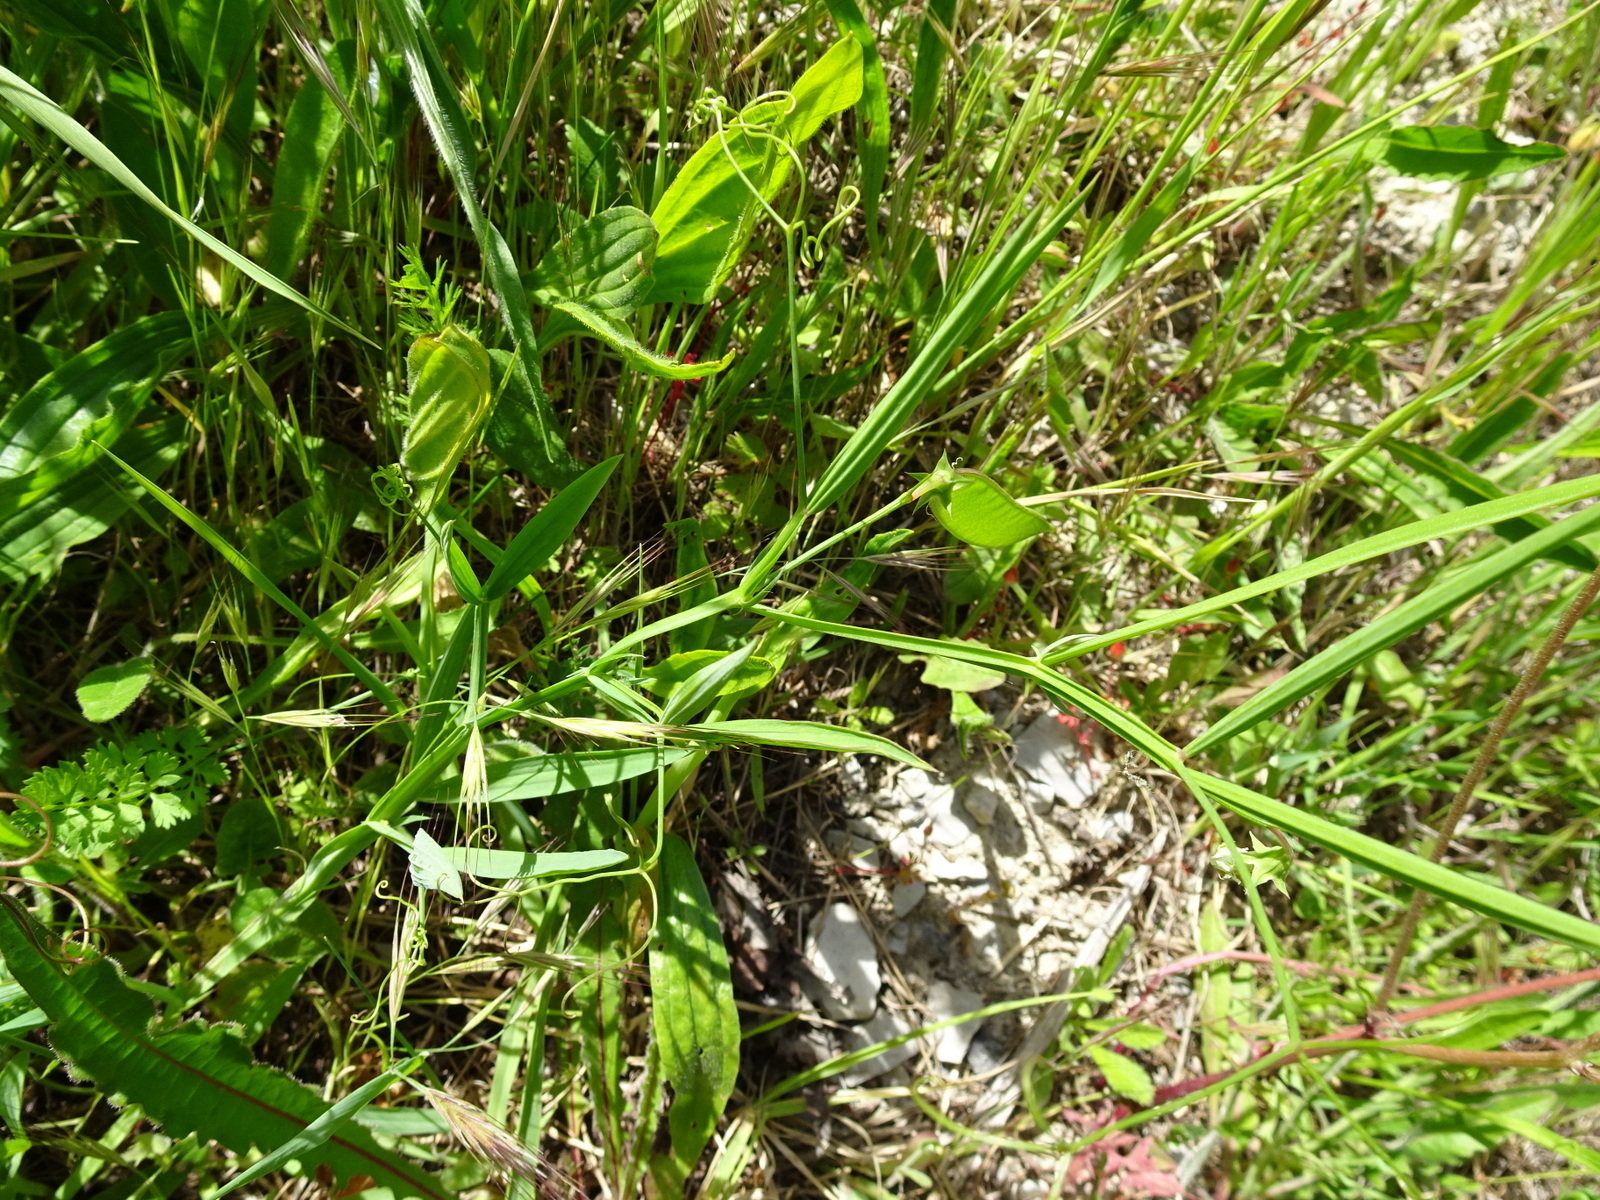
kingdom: Plantae
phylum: Tracheophyta
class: Magnoliopsida
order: Fabales
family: Fabaceae
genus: Lathyrus
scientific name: Lathyrus annuus
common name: Fodder pea
